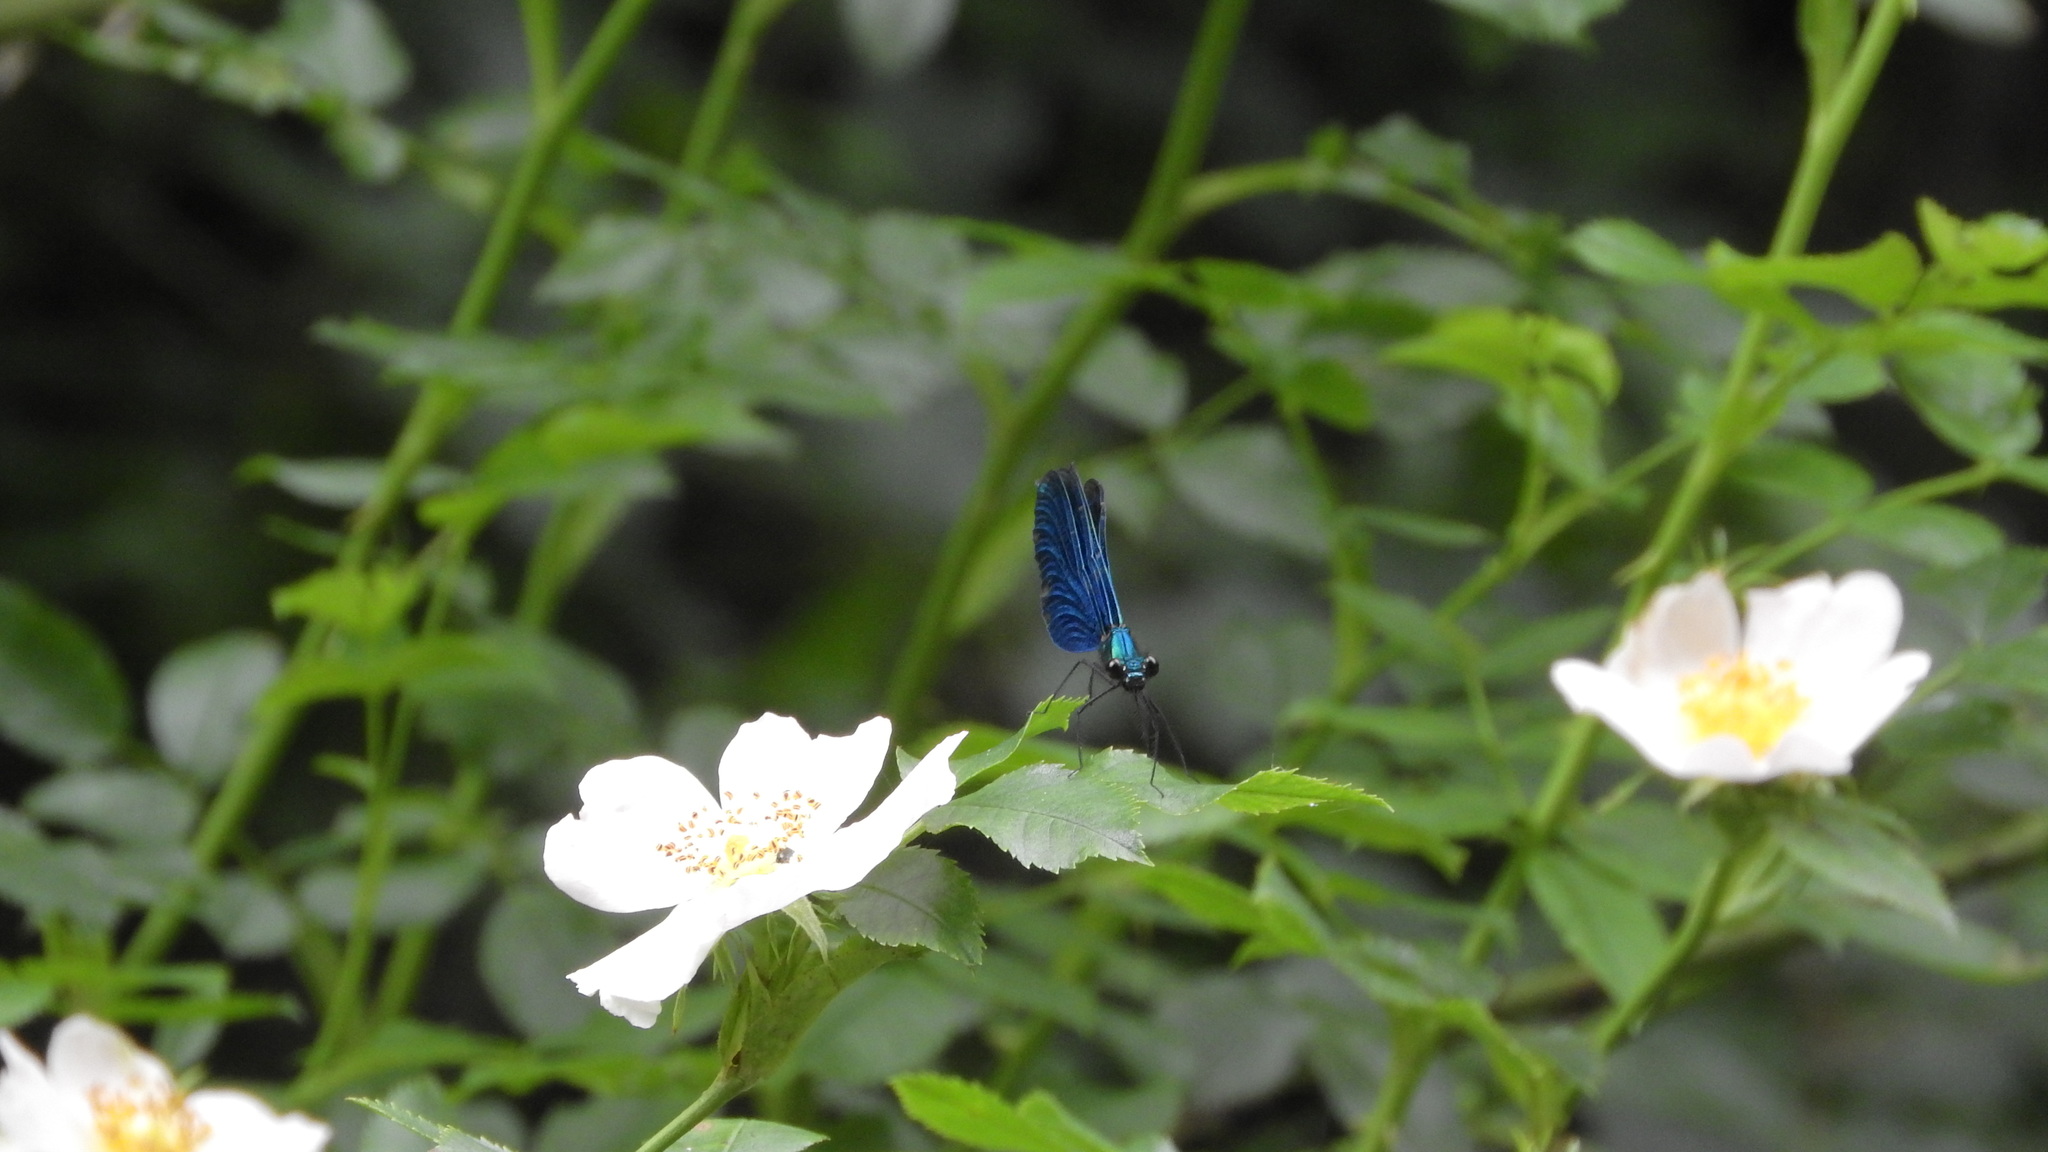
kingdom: Animalia
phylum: Arthropoda
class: Insecta
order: Odonata
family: Calopterygidae
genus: Calopteryx
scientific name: Calopteryx virgo
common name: Beautiful demoiselle
